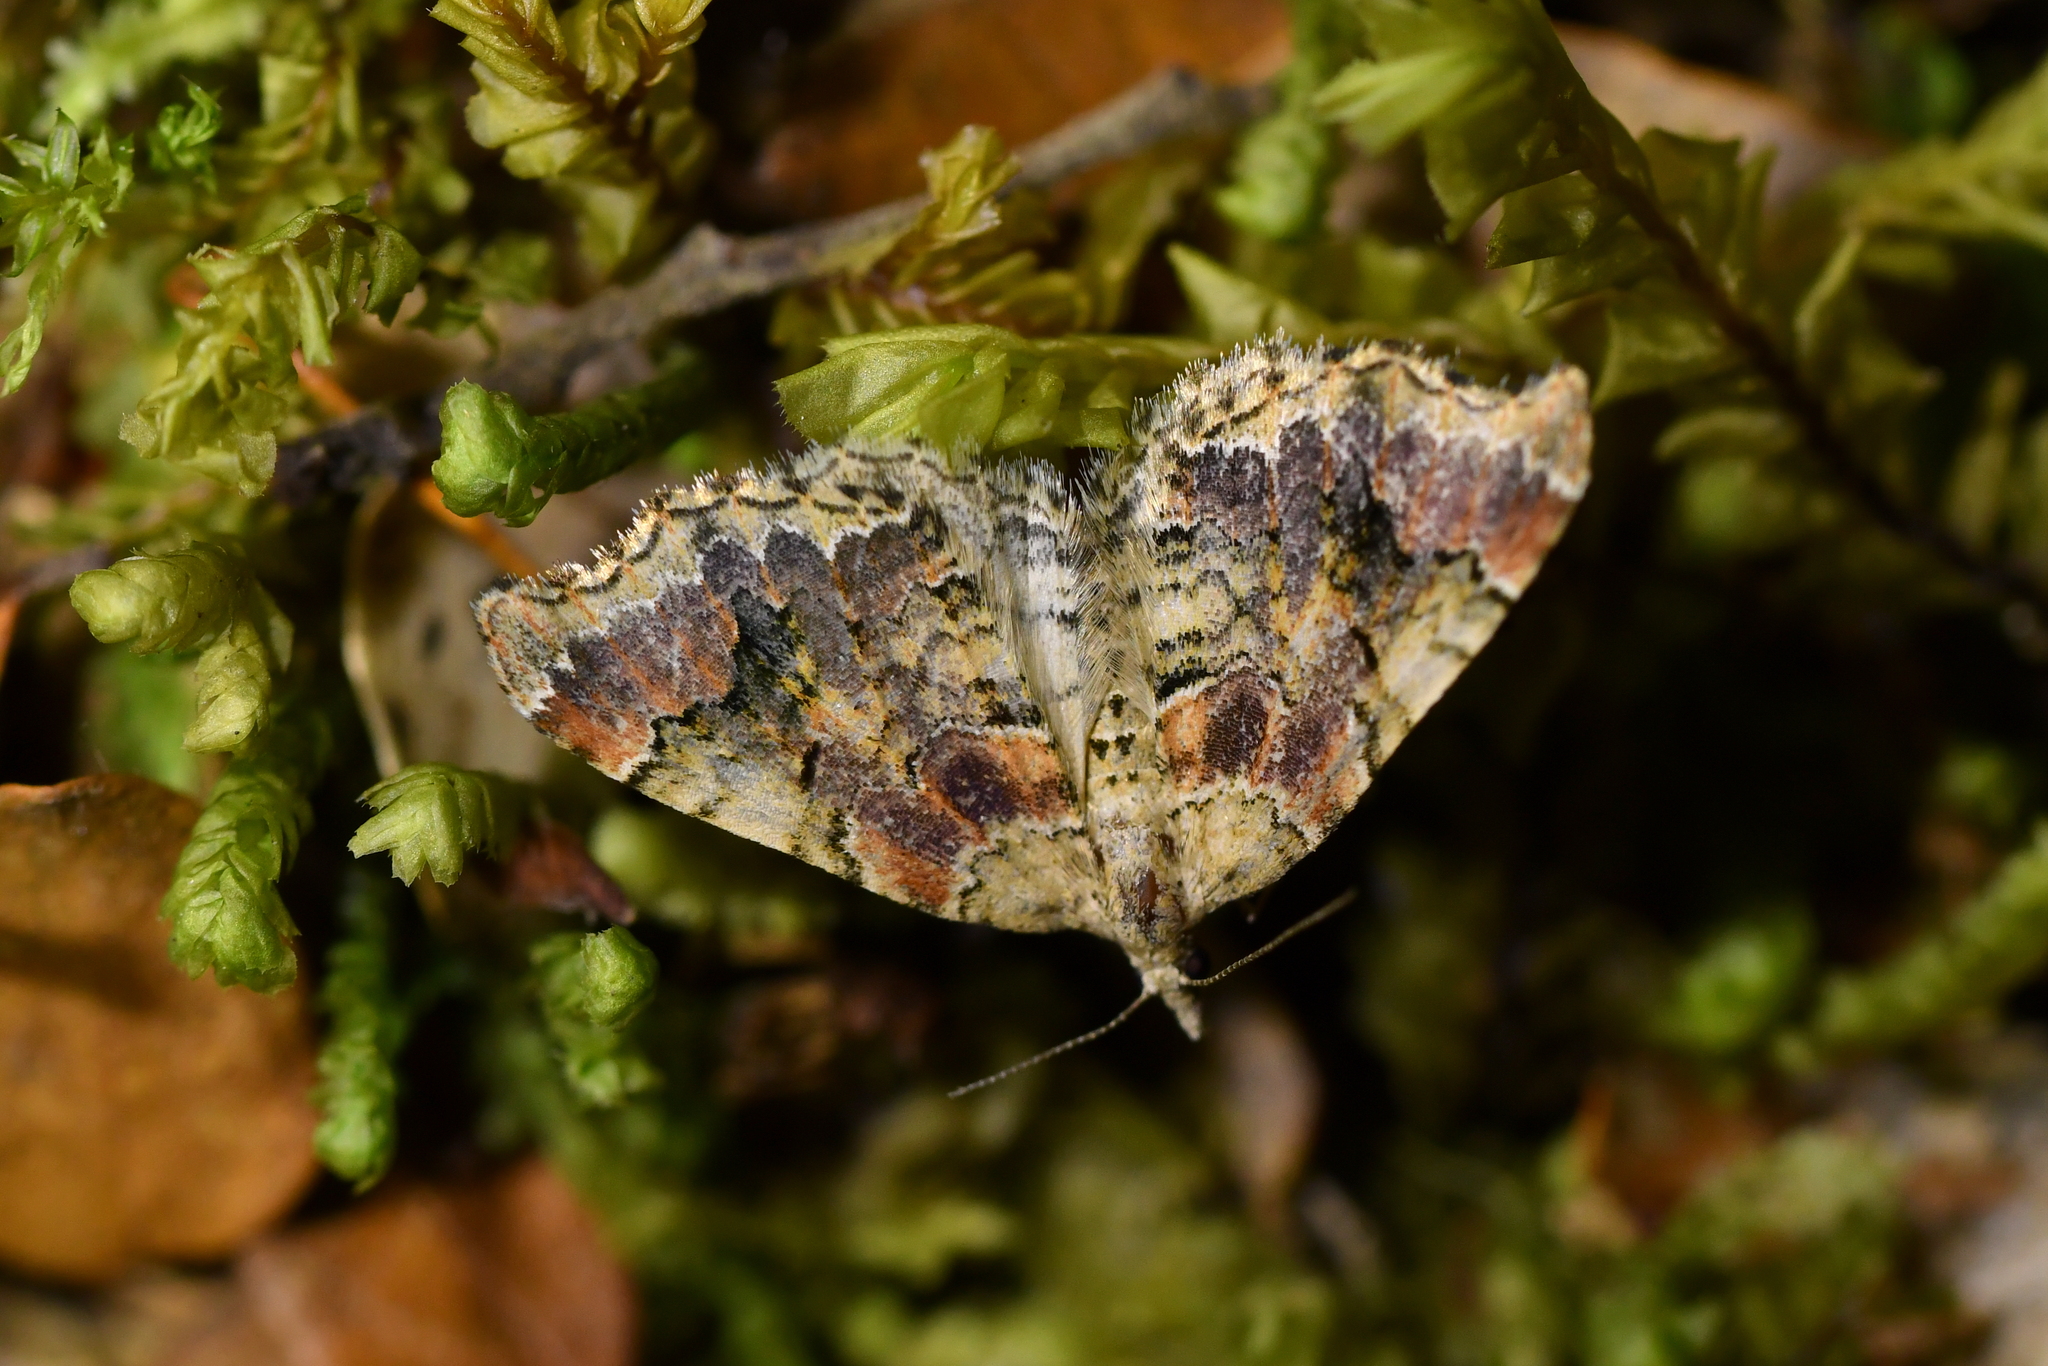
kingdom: Animalia
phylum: Arthropoda
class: Insecta
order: Lepidoptera
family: Geometridae
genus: Helastia
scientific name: Helastia cryptica
